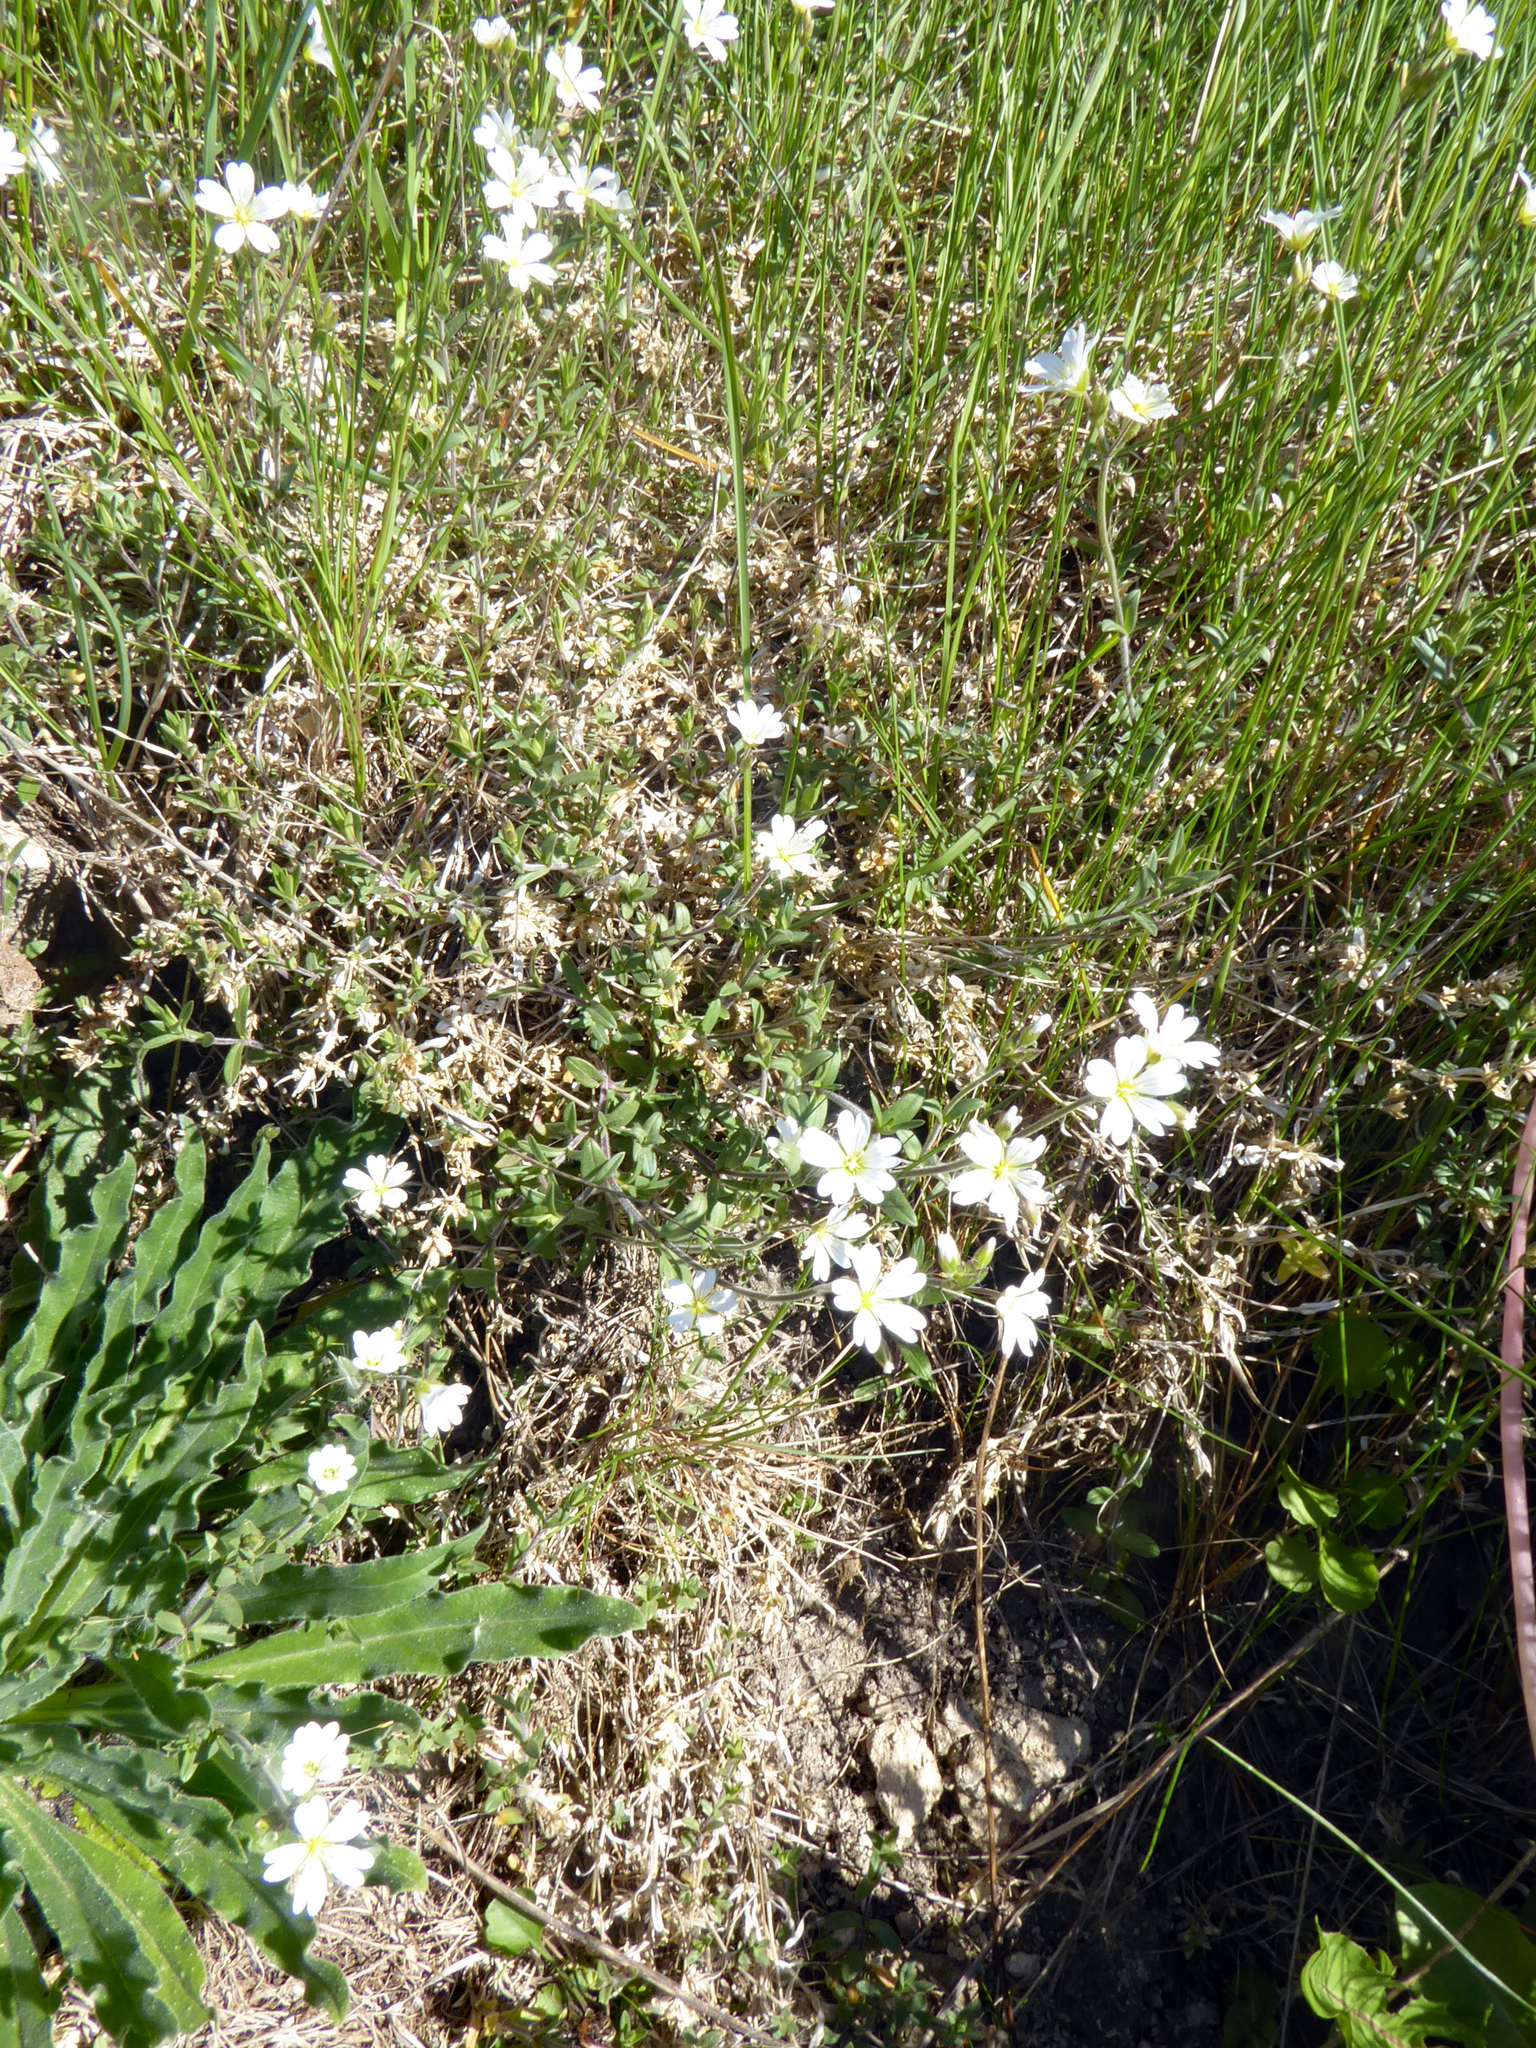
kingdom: Plantae
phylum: Tracheophyta
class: Magnoliopsida
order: Caryophyllales
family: Caryophyllaceae
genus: Cerastium
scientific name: Cerastium arvense
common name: Field mouse-ear
